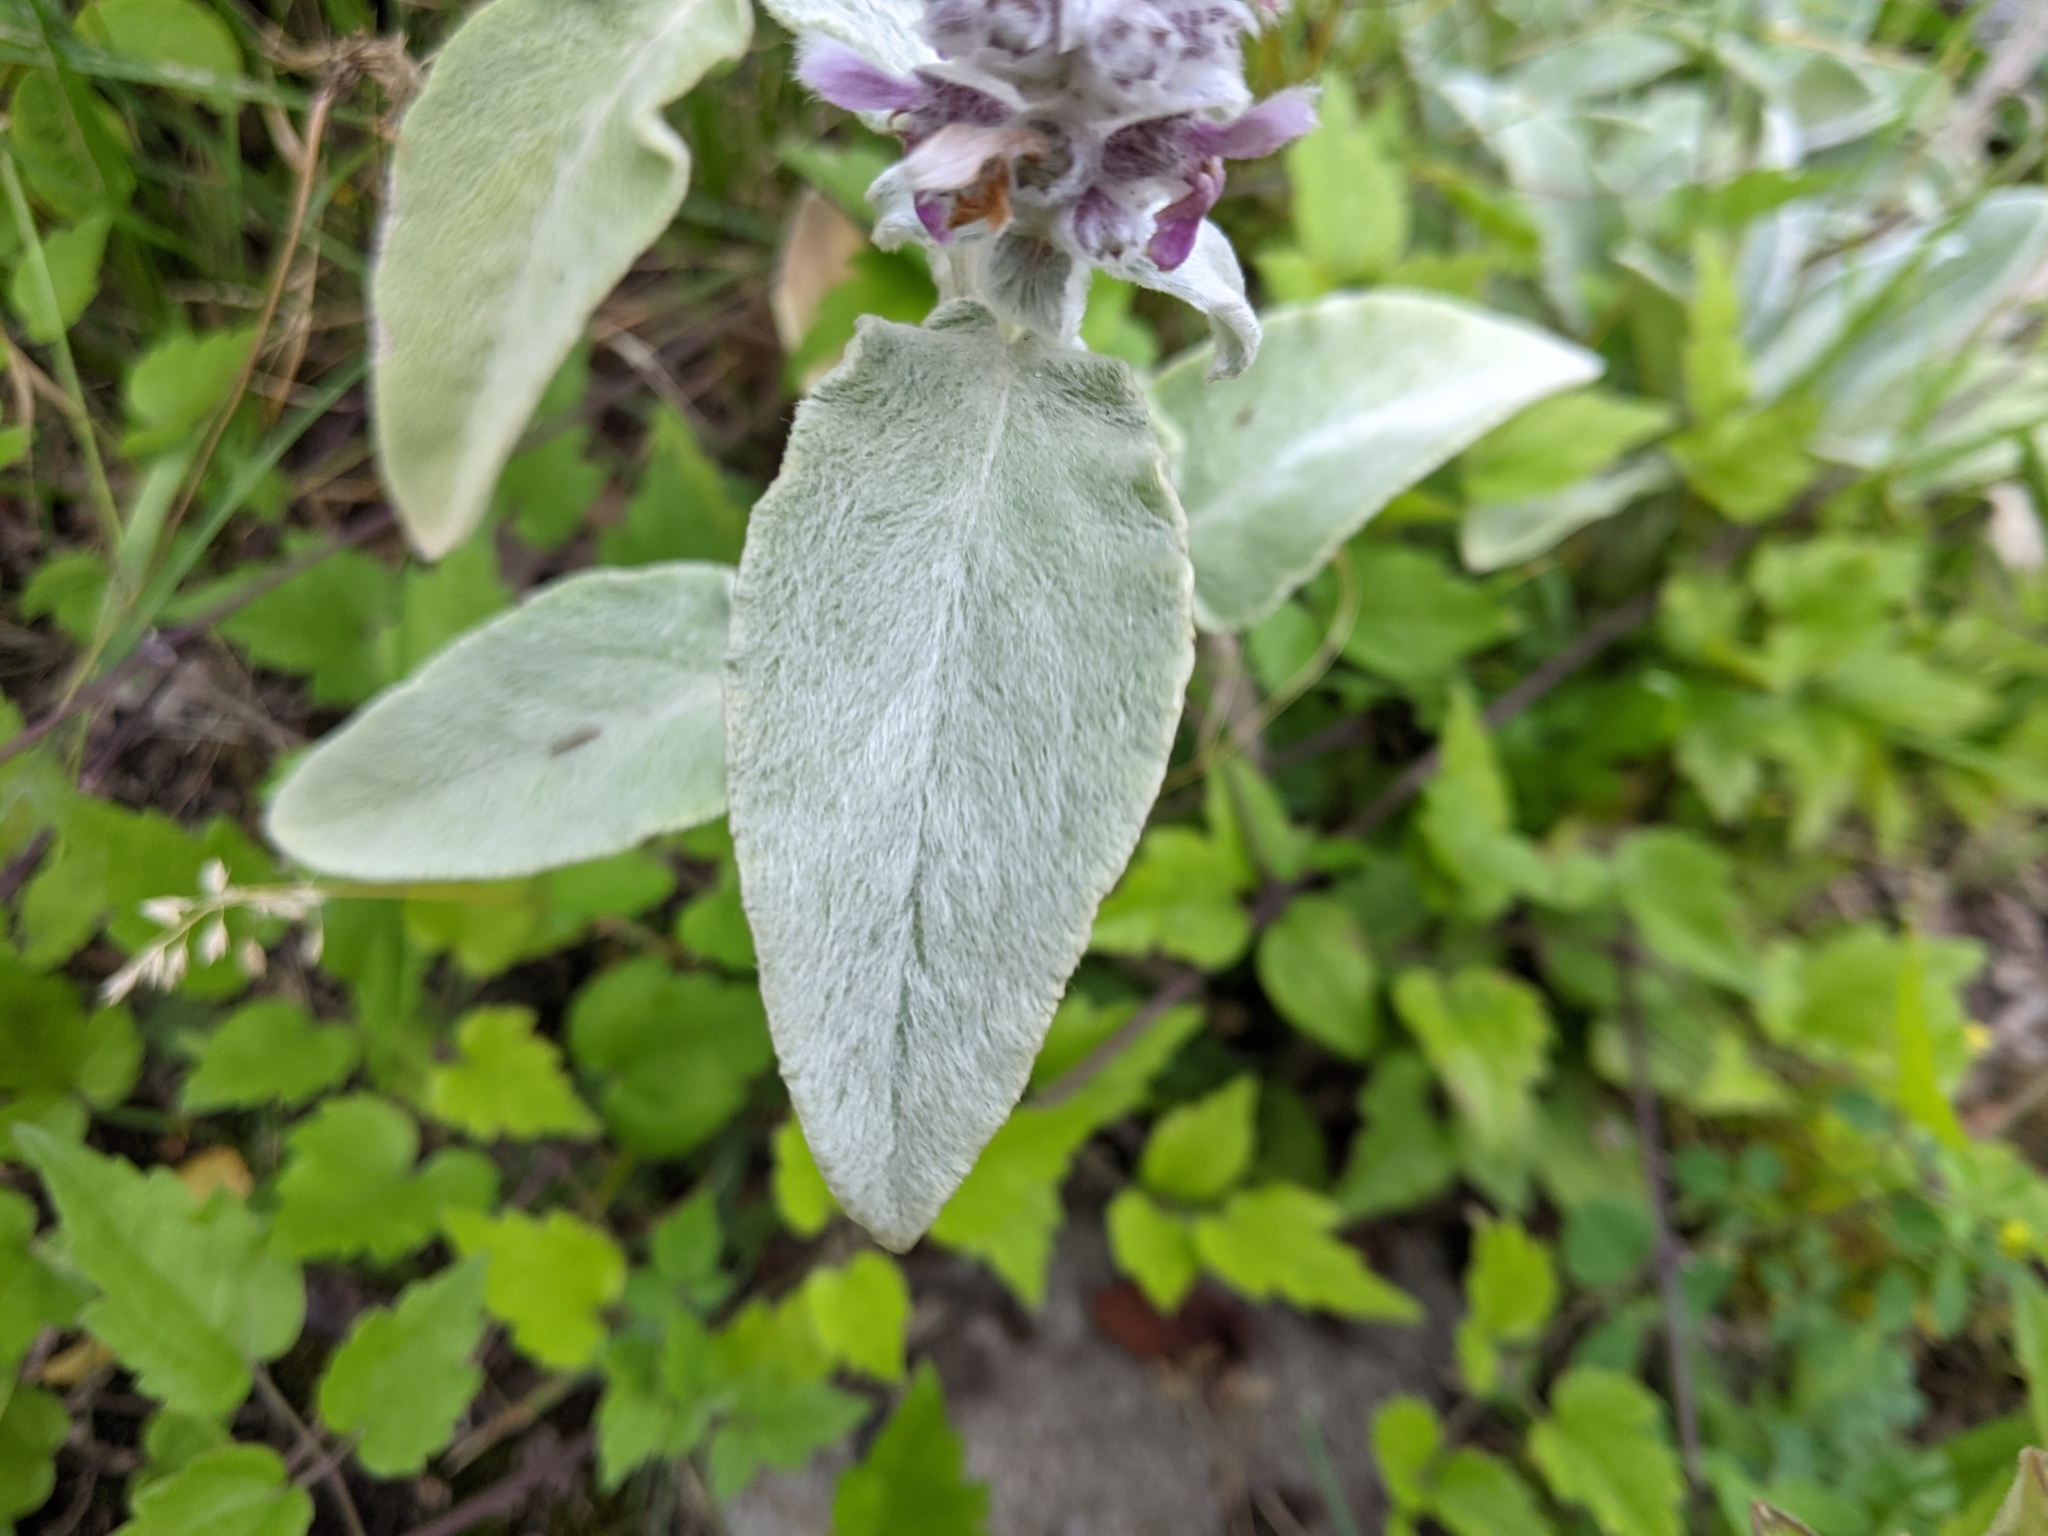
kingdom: Plantae
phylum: Tracheophyta
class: Magnoliopsida
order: Lamiales
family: Lamiaceae
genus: Stachys
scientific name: Stachys byzantina
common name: Lamb's-ear
